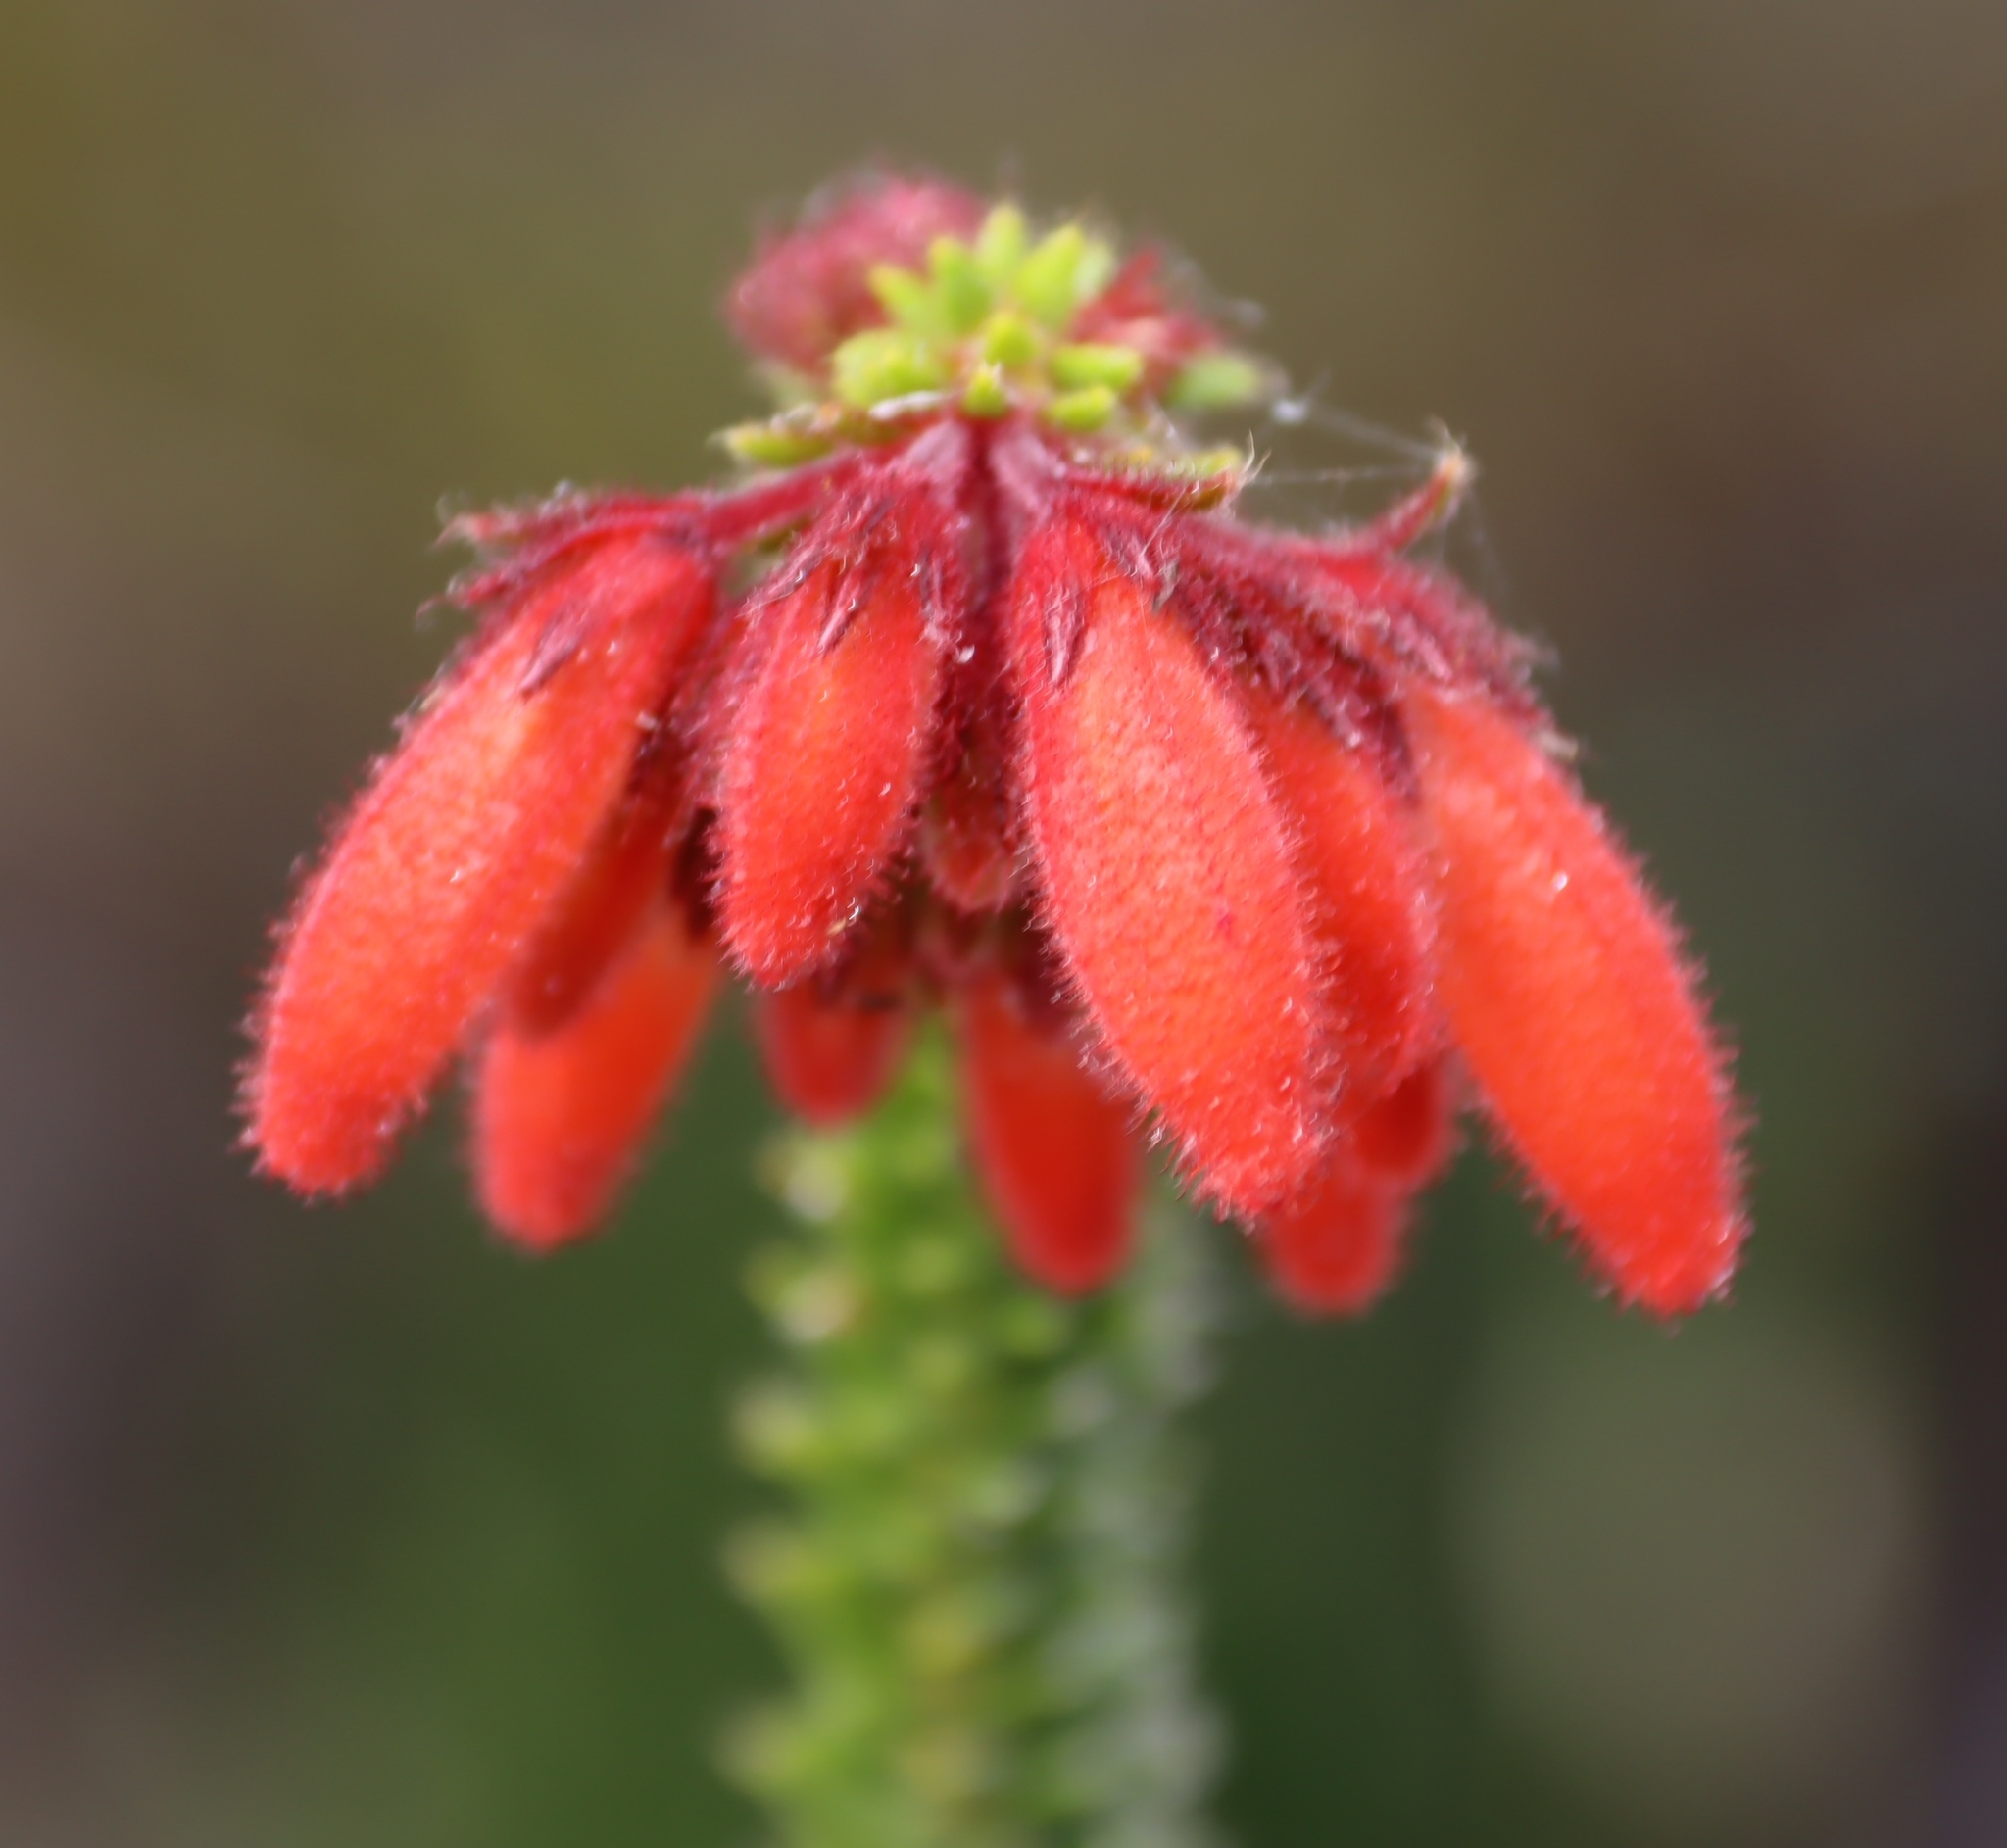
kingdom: Plantae
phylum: Tracheophyta
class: Magnoliopsida
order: Ericales
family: Ericaceae
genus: Erica
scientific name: Erica cerinthoides
